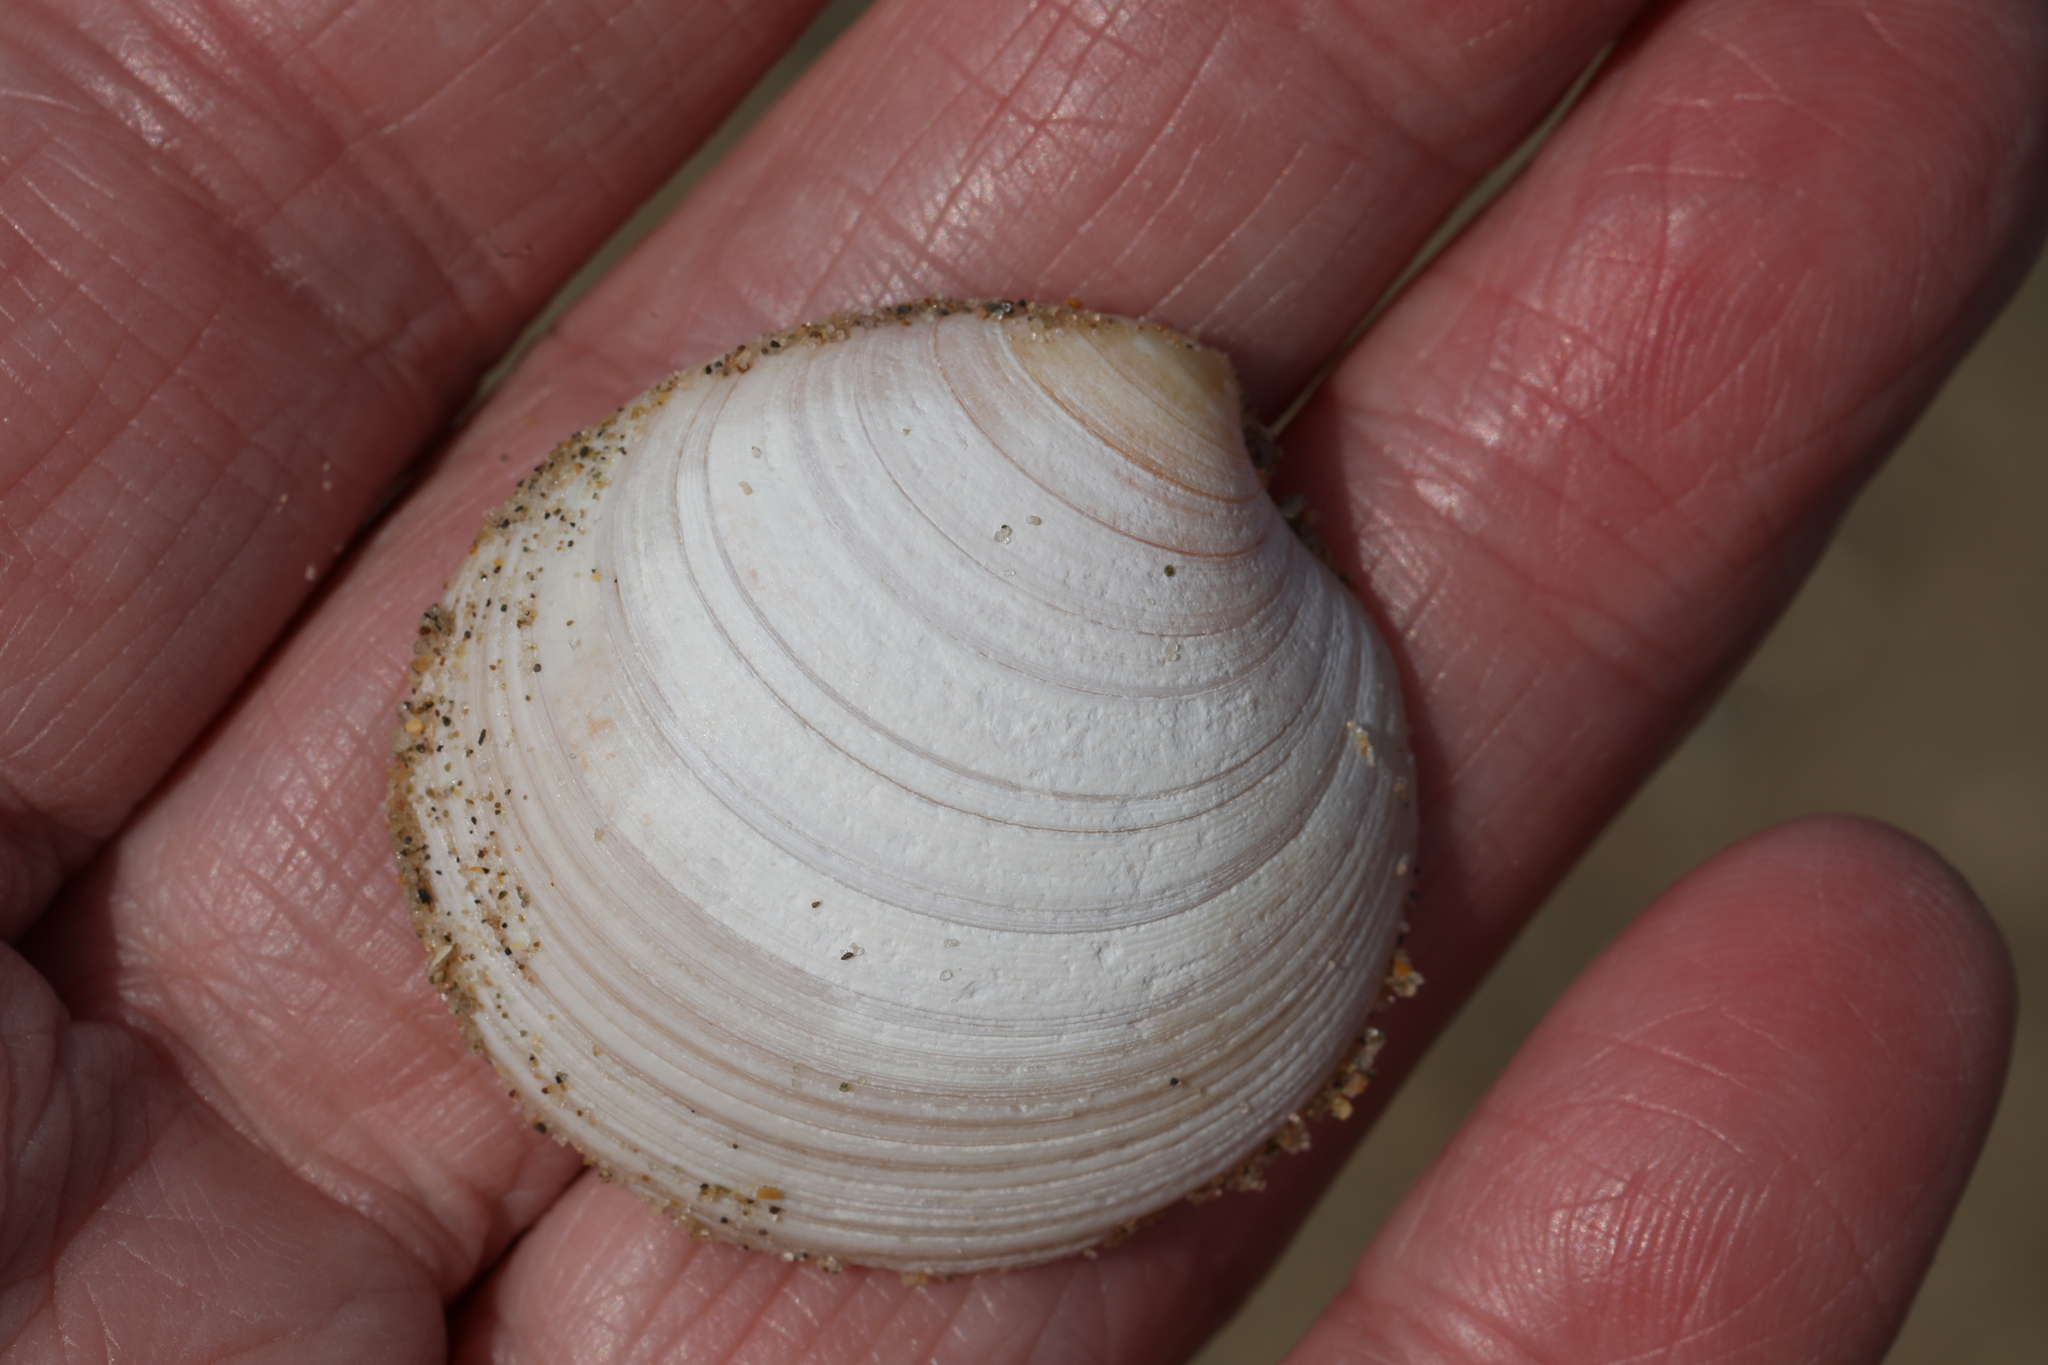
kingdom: Animalia
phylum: Mollusca
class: Bivalvia
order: Venerida
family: Veneridae
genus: Dosinia
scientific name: Dosinia exoleta
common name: Rayed artemis
